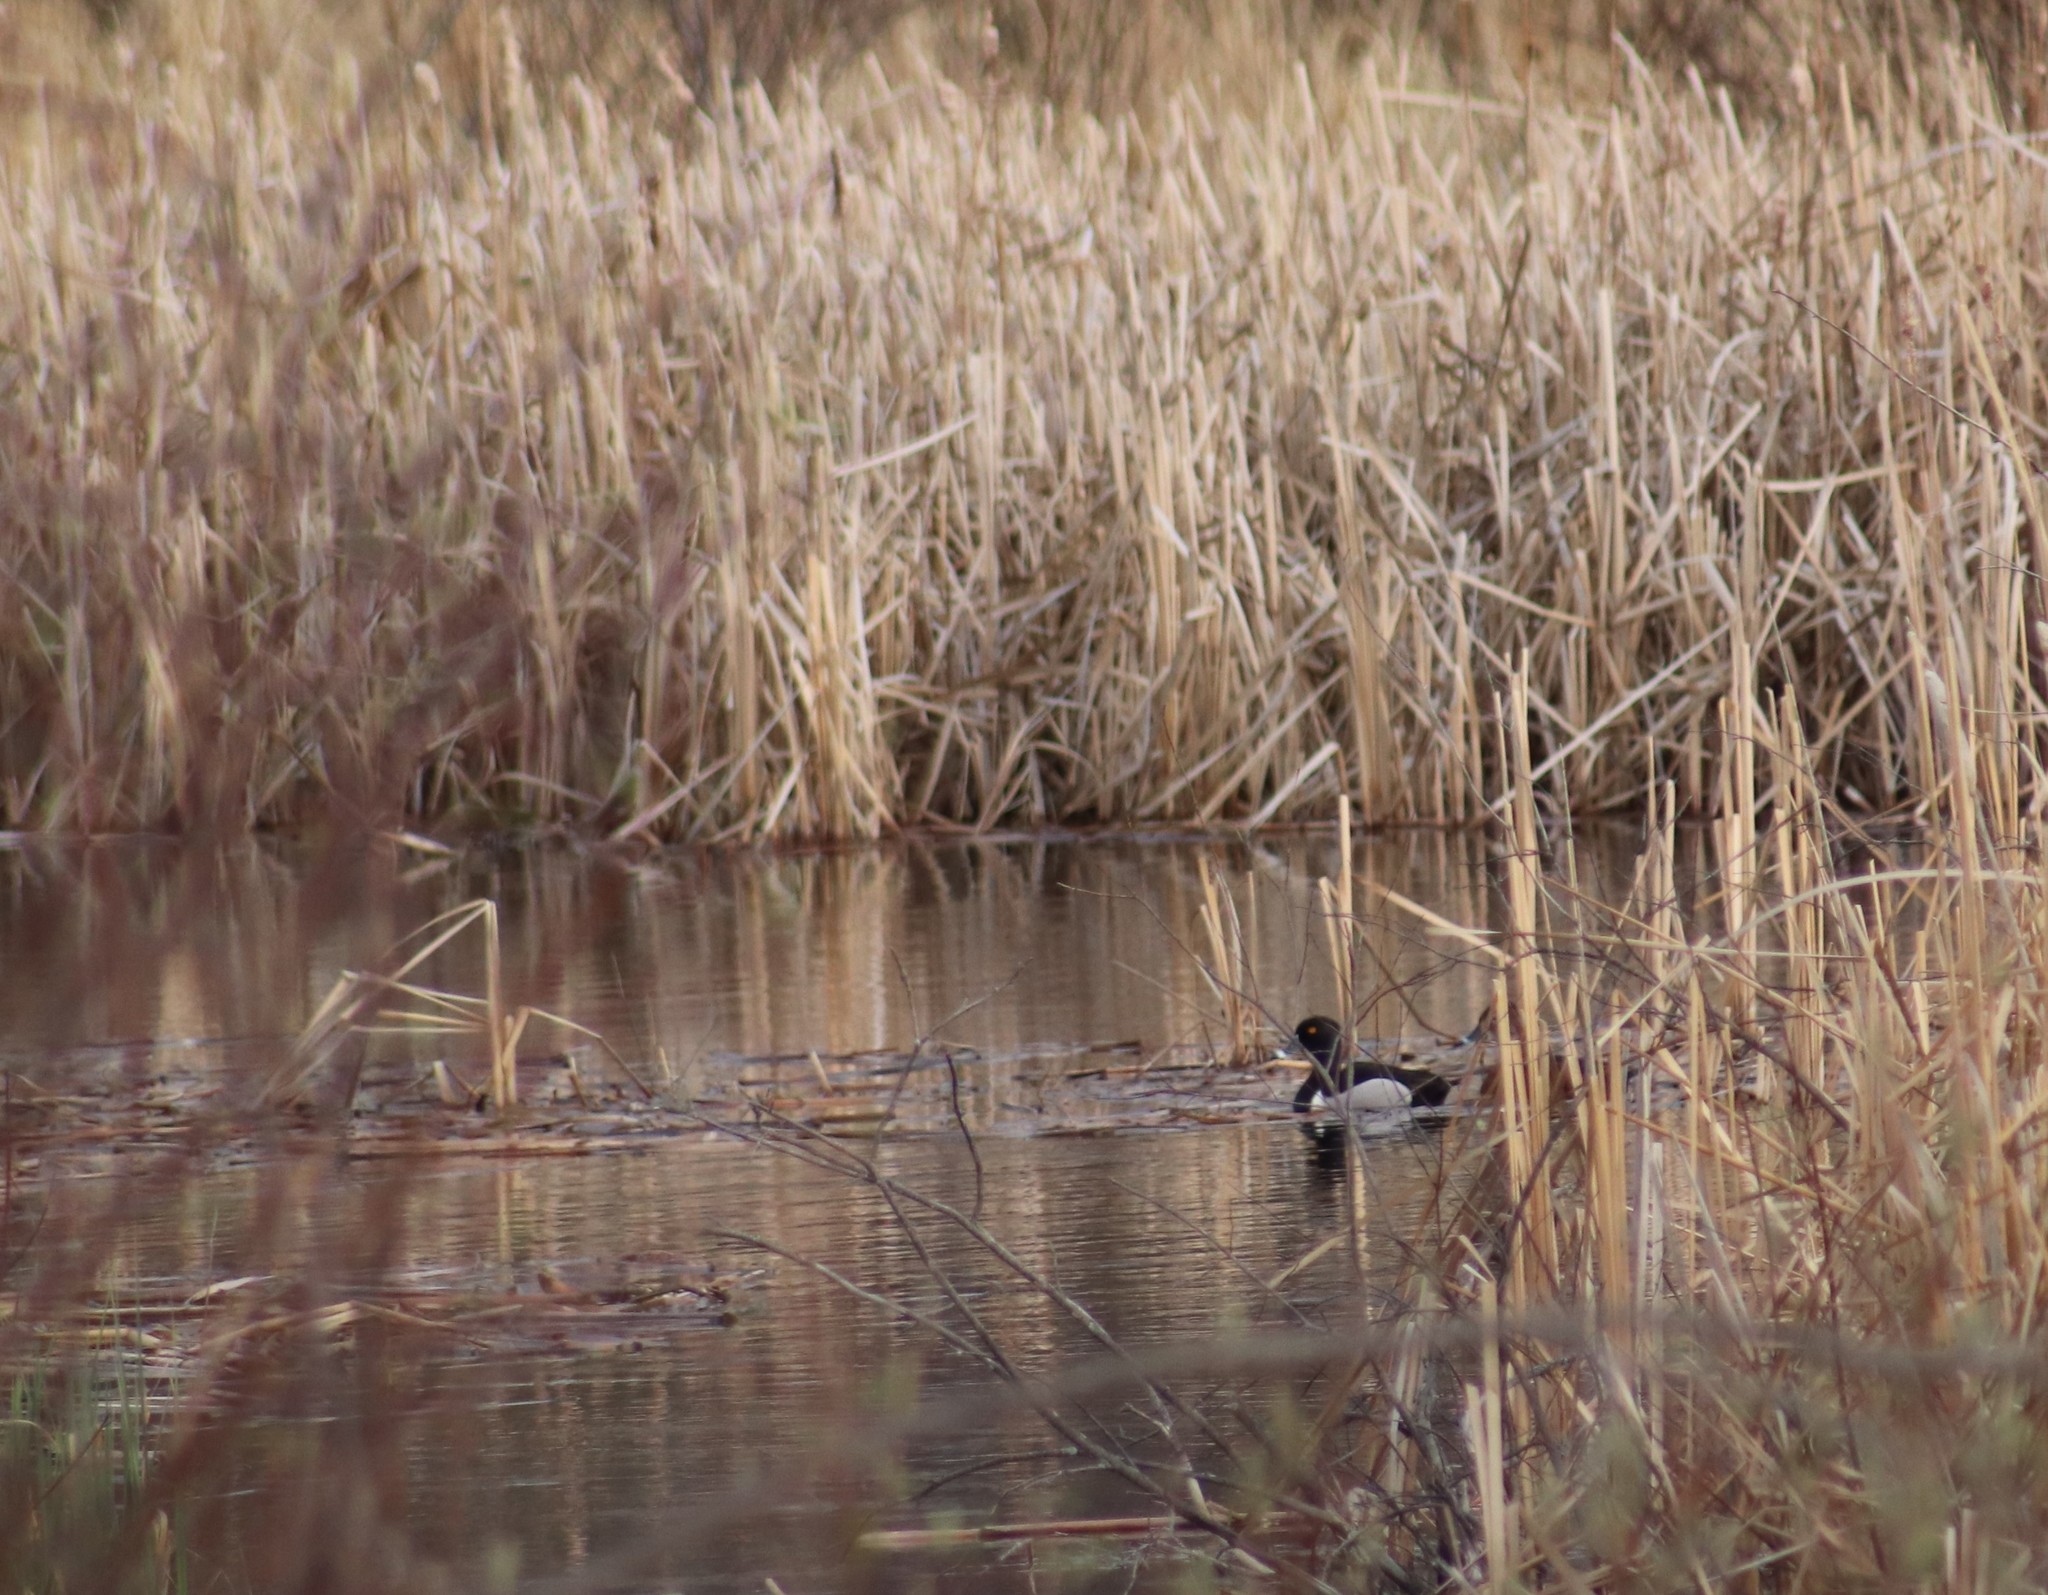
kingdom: Animalia
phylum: Chordata
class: Aves
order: Anseriformes
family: Anatidae
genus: Aythya
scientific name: Aythya collaris
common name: Ring-necked duck
